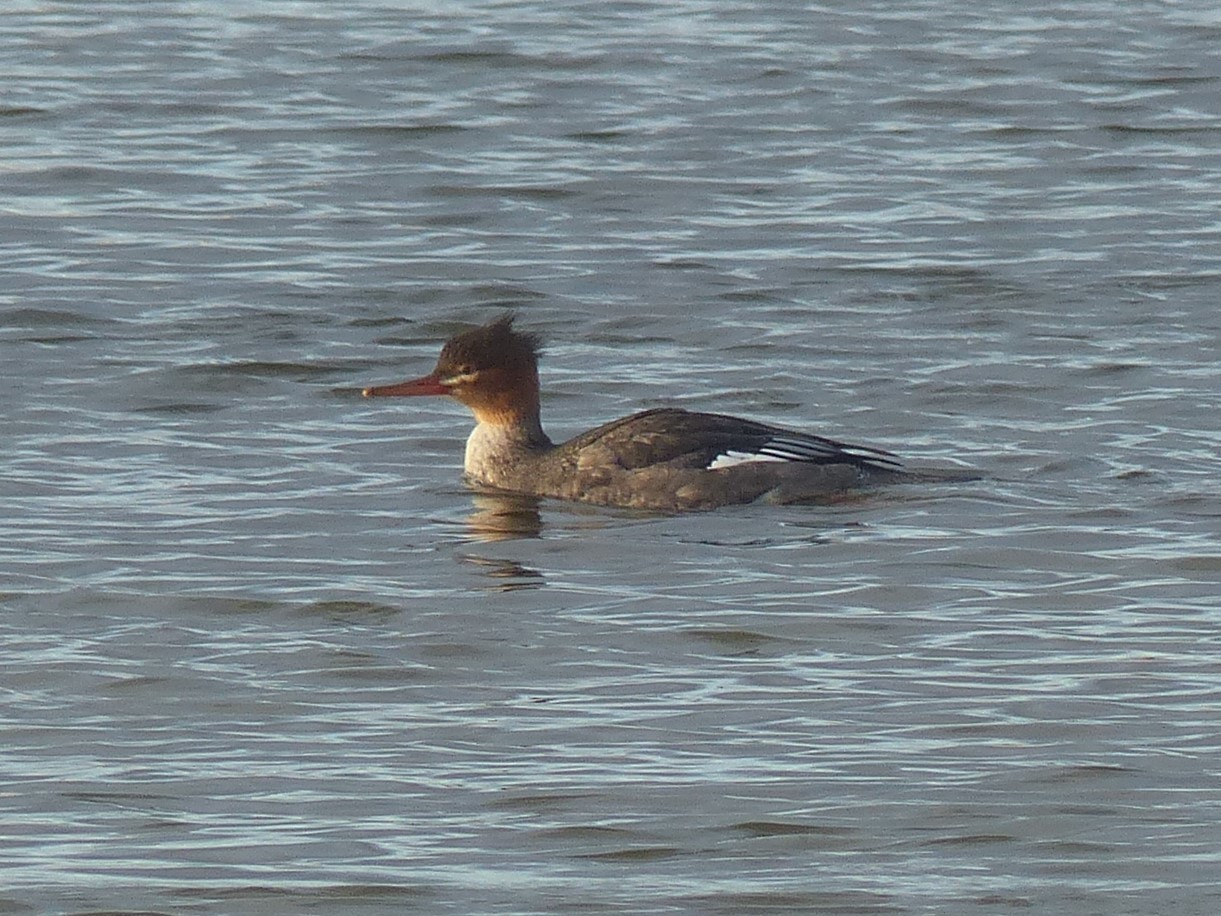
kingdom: Animalia
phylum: Chordata
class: Aves
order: Anseriformes
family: Anatidae
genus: Mergus
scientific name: Mergus serrator
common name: Red-breasted merganser
